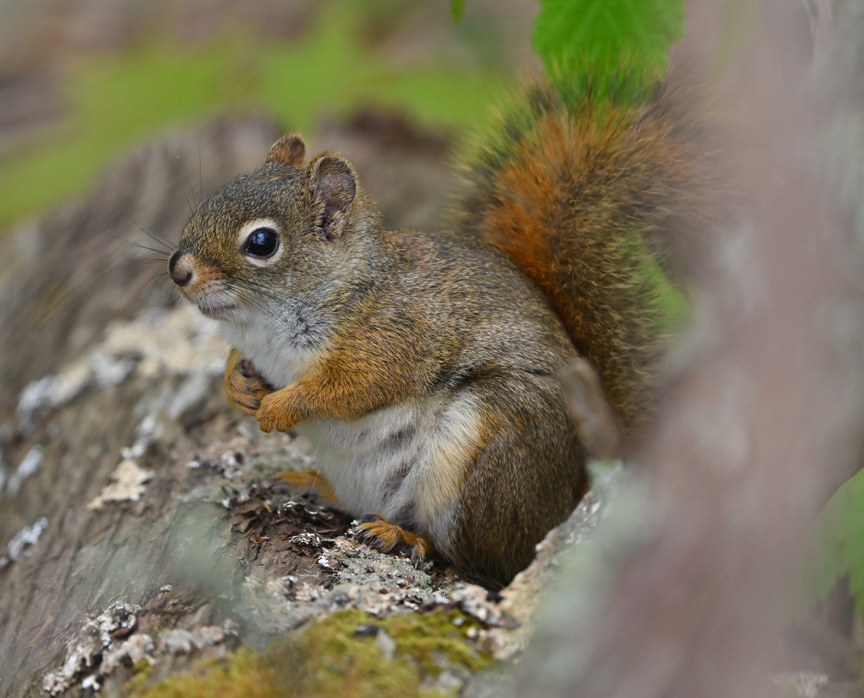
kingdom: Animalia
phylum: Chordata
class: Mammalia
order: Rodentia
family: Sciuridae
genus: Tamiasciurus
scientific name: Tamiasciurus hudsonicus
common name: Red squirrel
